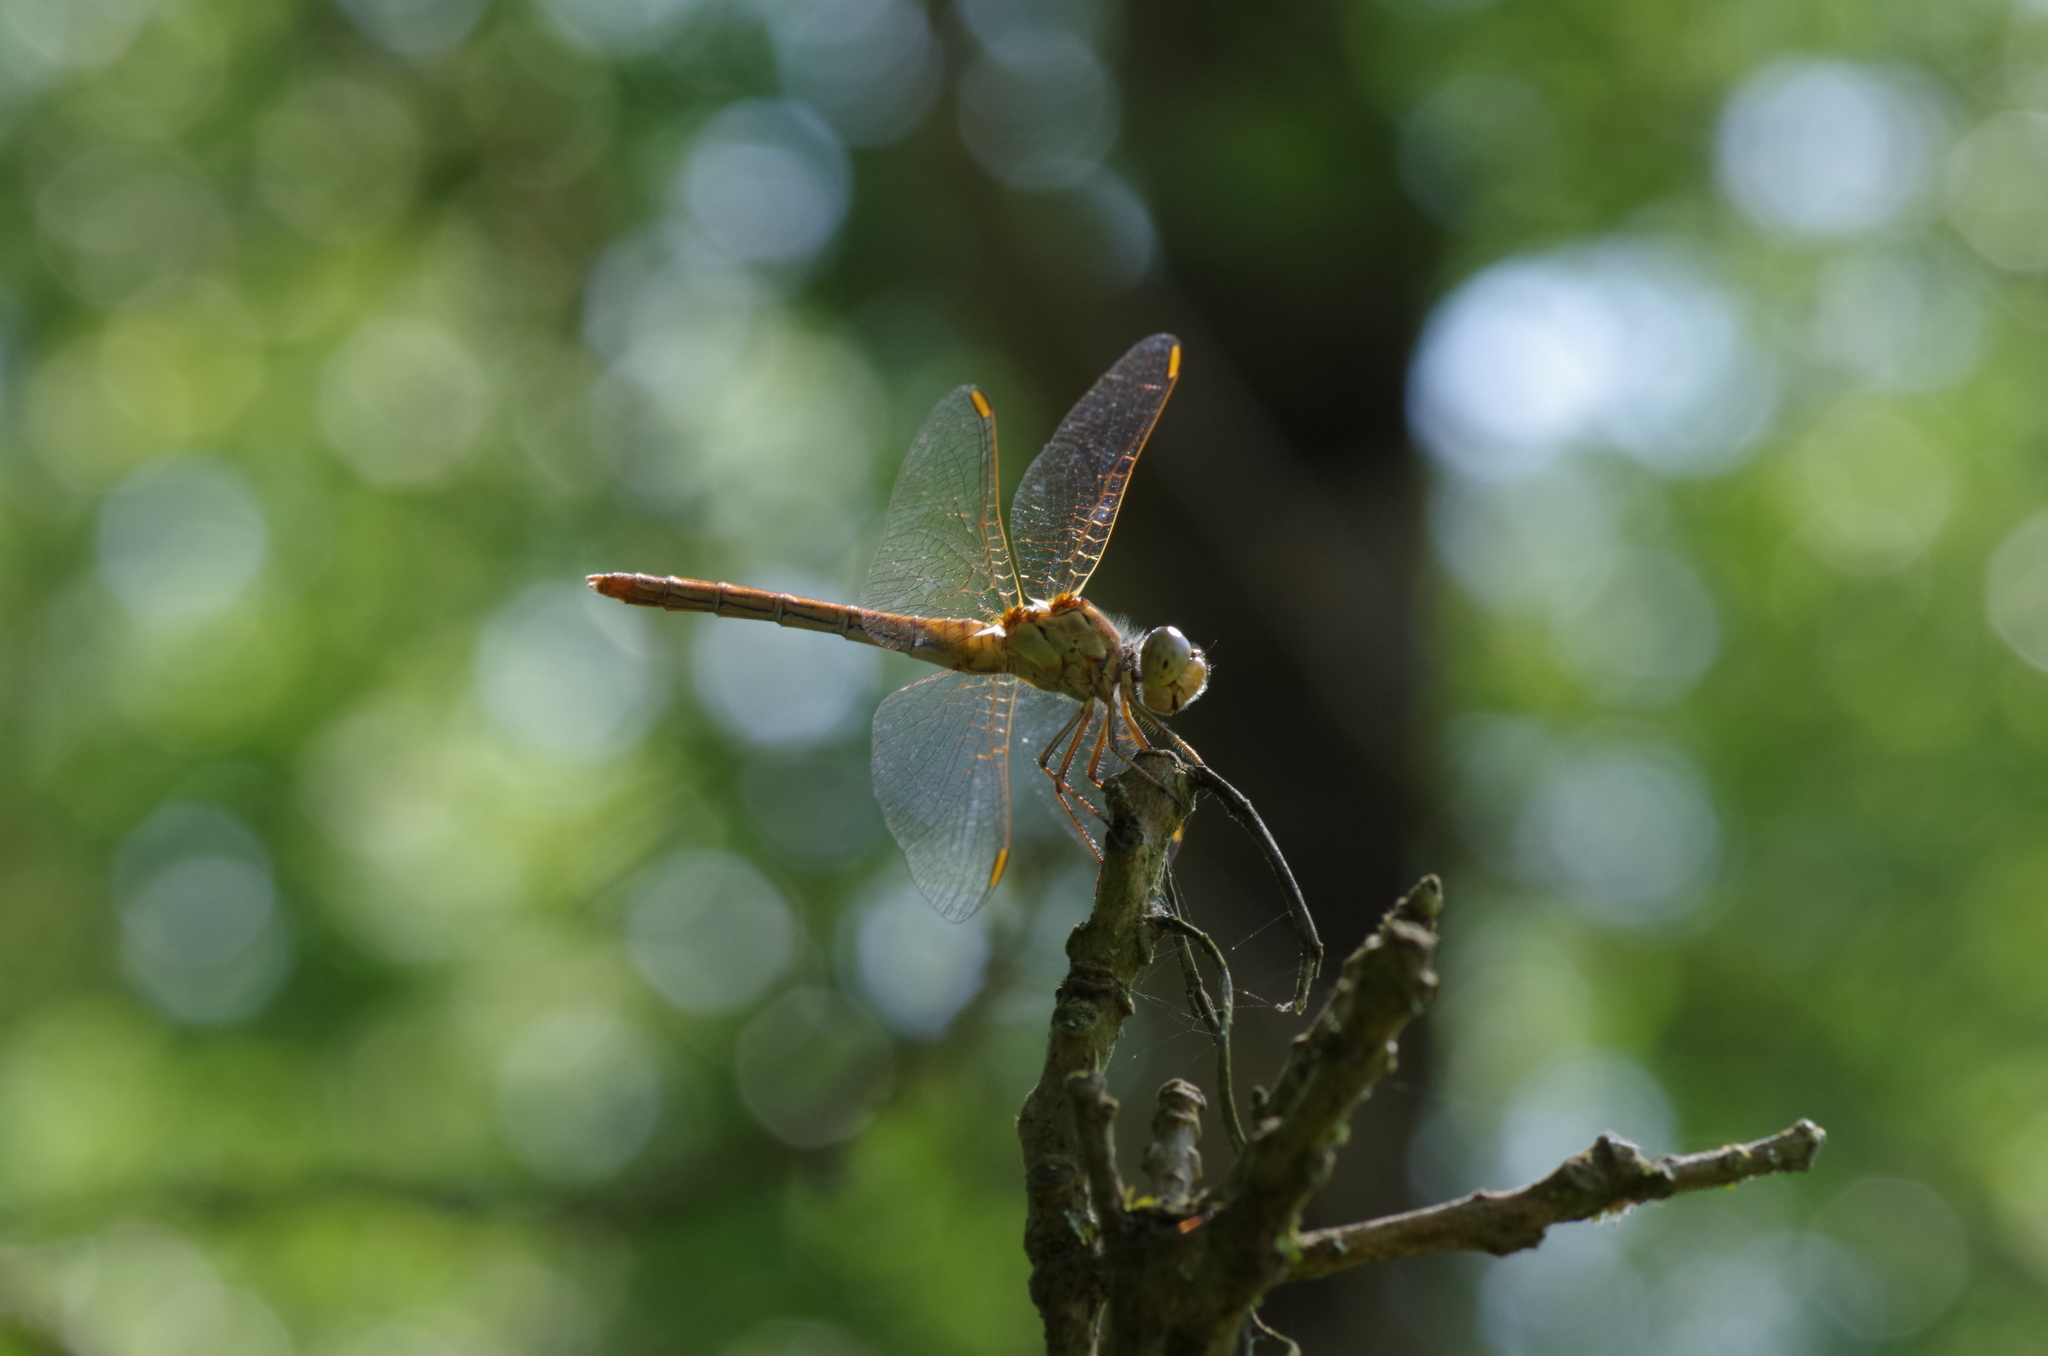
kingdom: Animalia
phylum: Arthropoda
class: Insecta
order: Odonata
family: Libellulidae
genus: Sympetrum
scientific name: Sympetrum meridionale
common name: Southern darter
